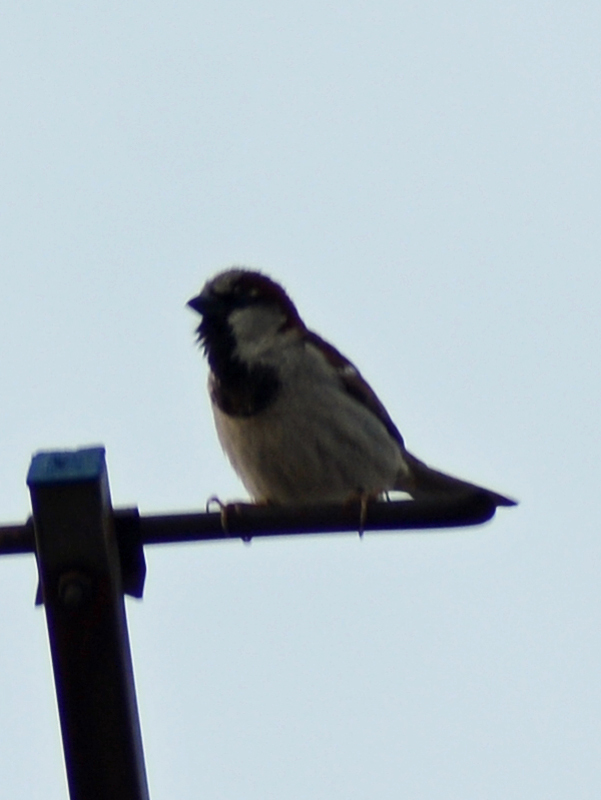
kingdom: Animalia
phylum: Chordata
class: Aves
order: Passeriformes
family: Passeridae
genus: Passer
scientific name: Passer domesticus
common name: House sparrow
